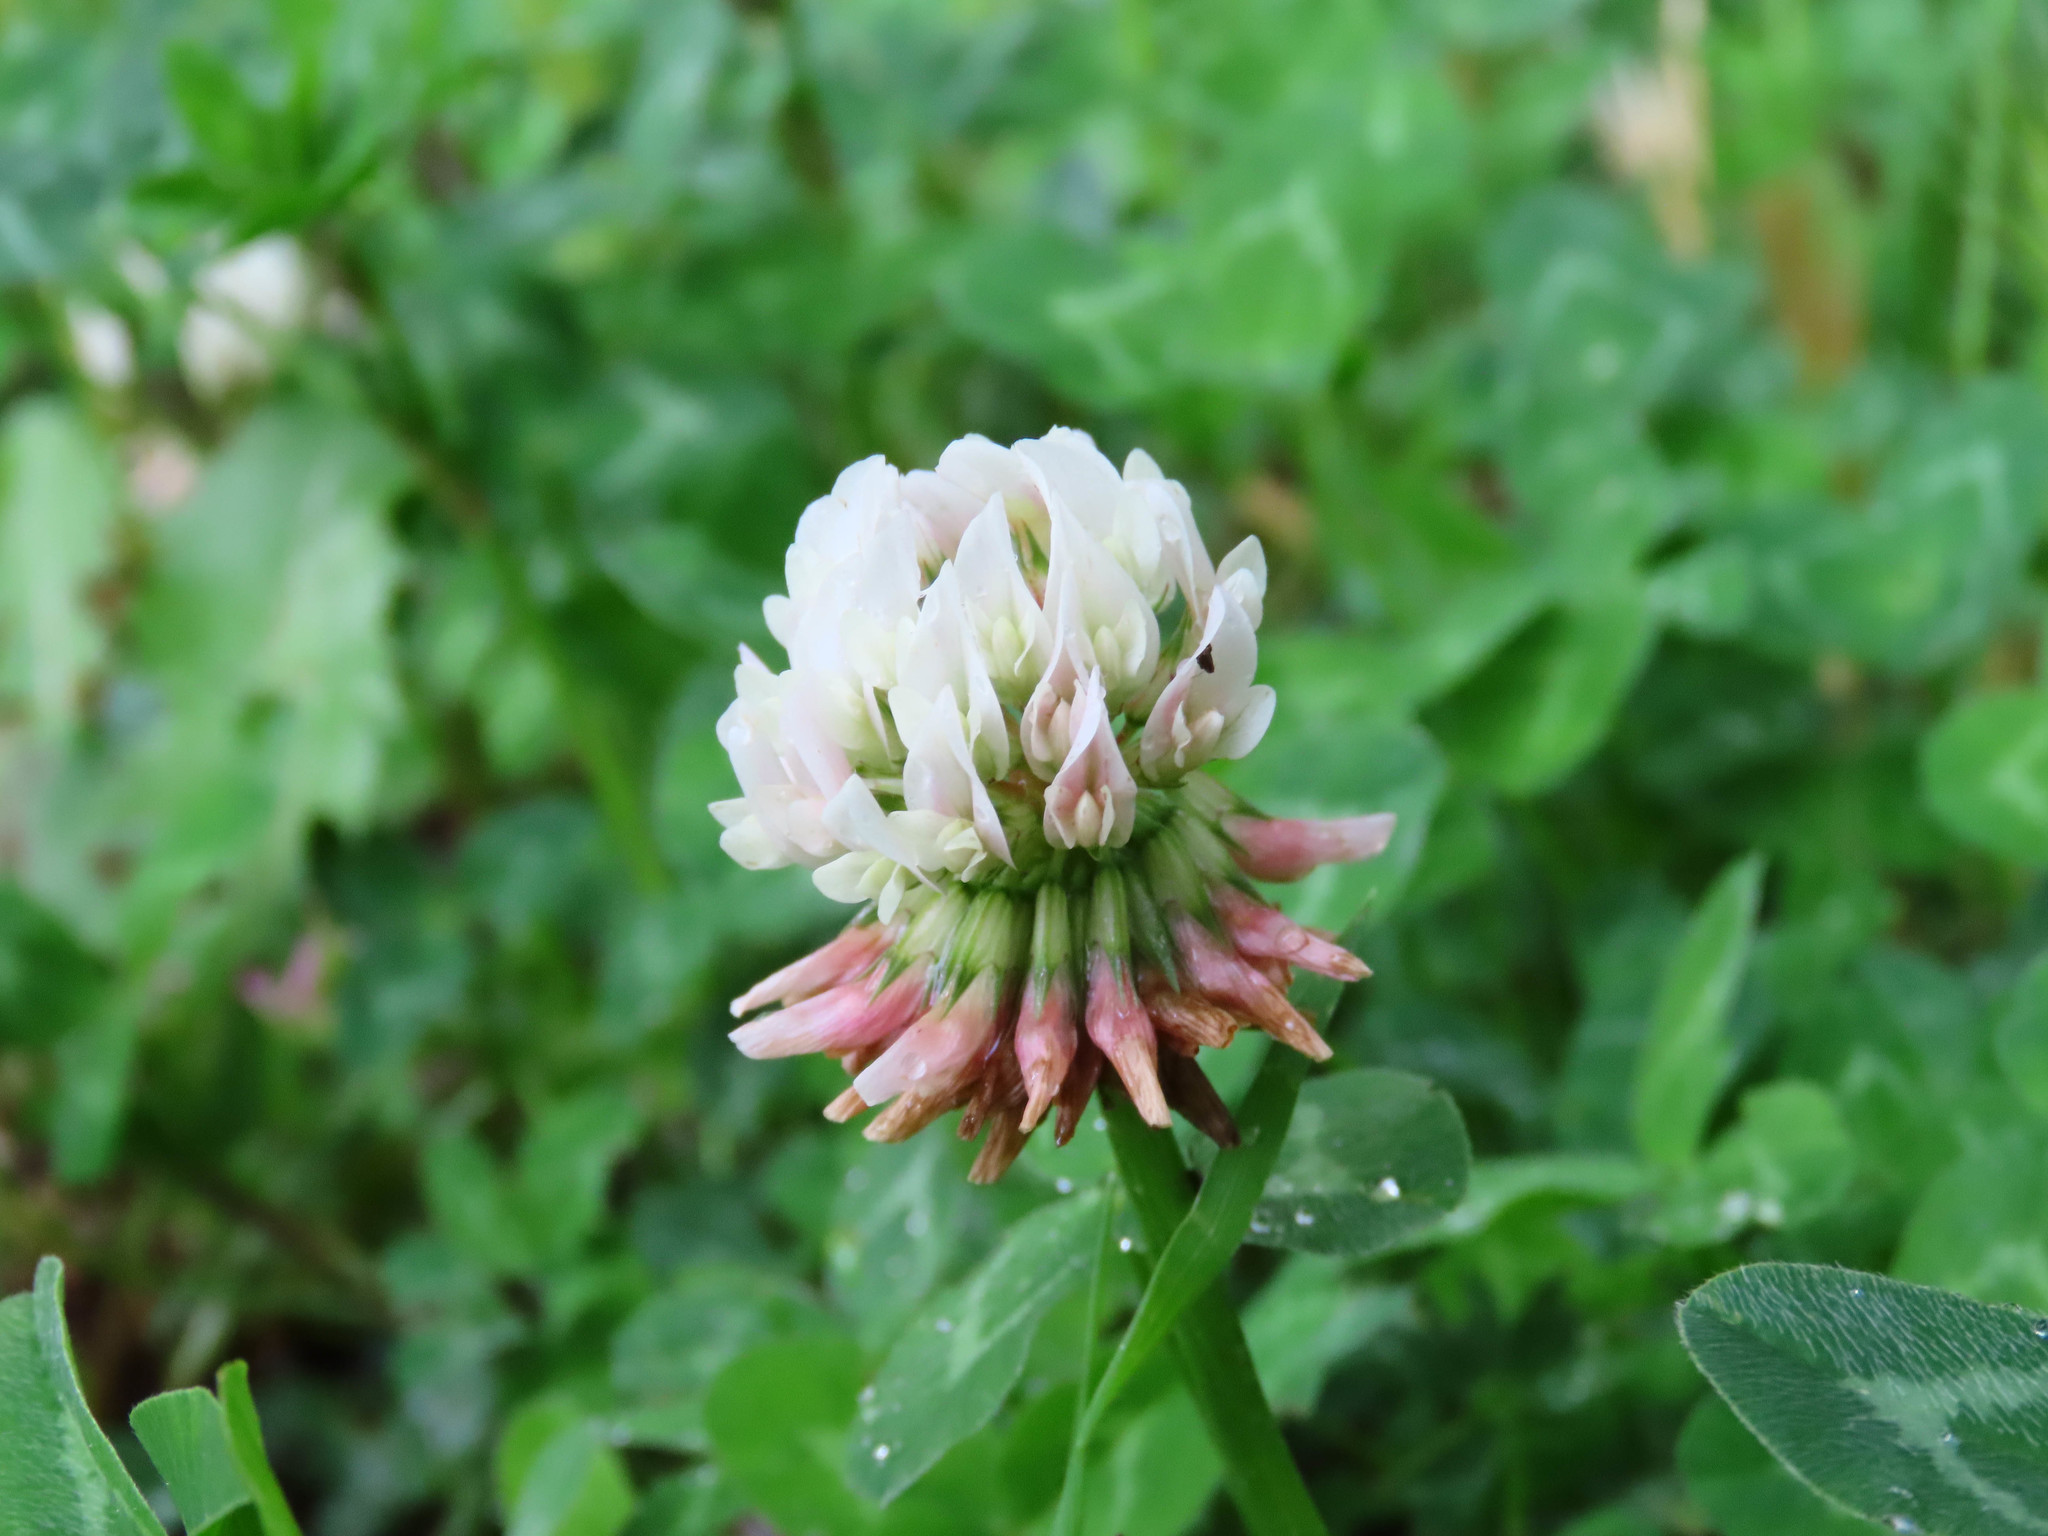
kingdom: Plantae
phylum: Tracheophyta
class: Magnoliopsida
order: Fabales
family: Fabaceae
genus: Trifolium
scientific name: Trifolium repens
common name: White clover
